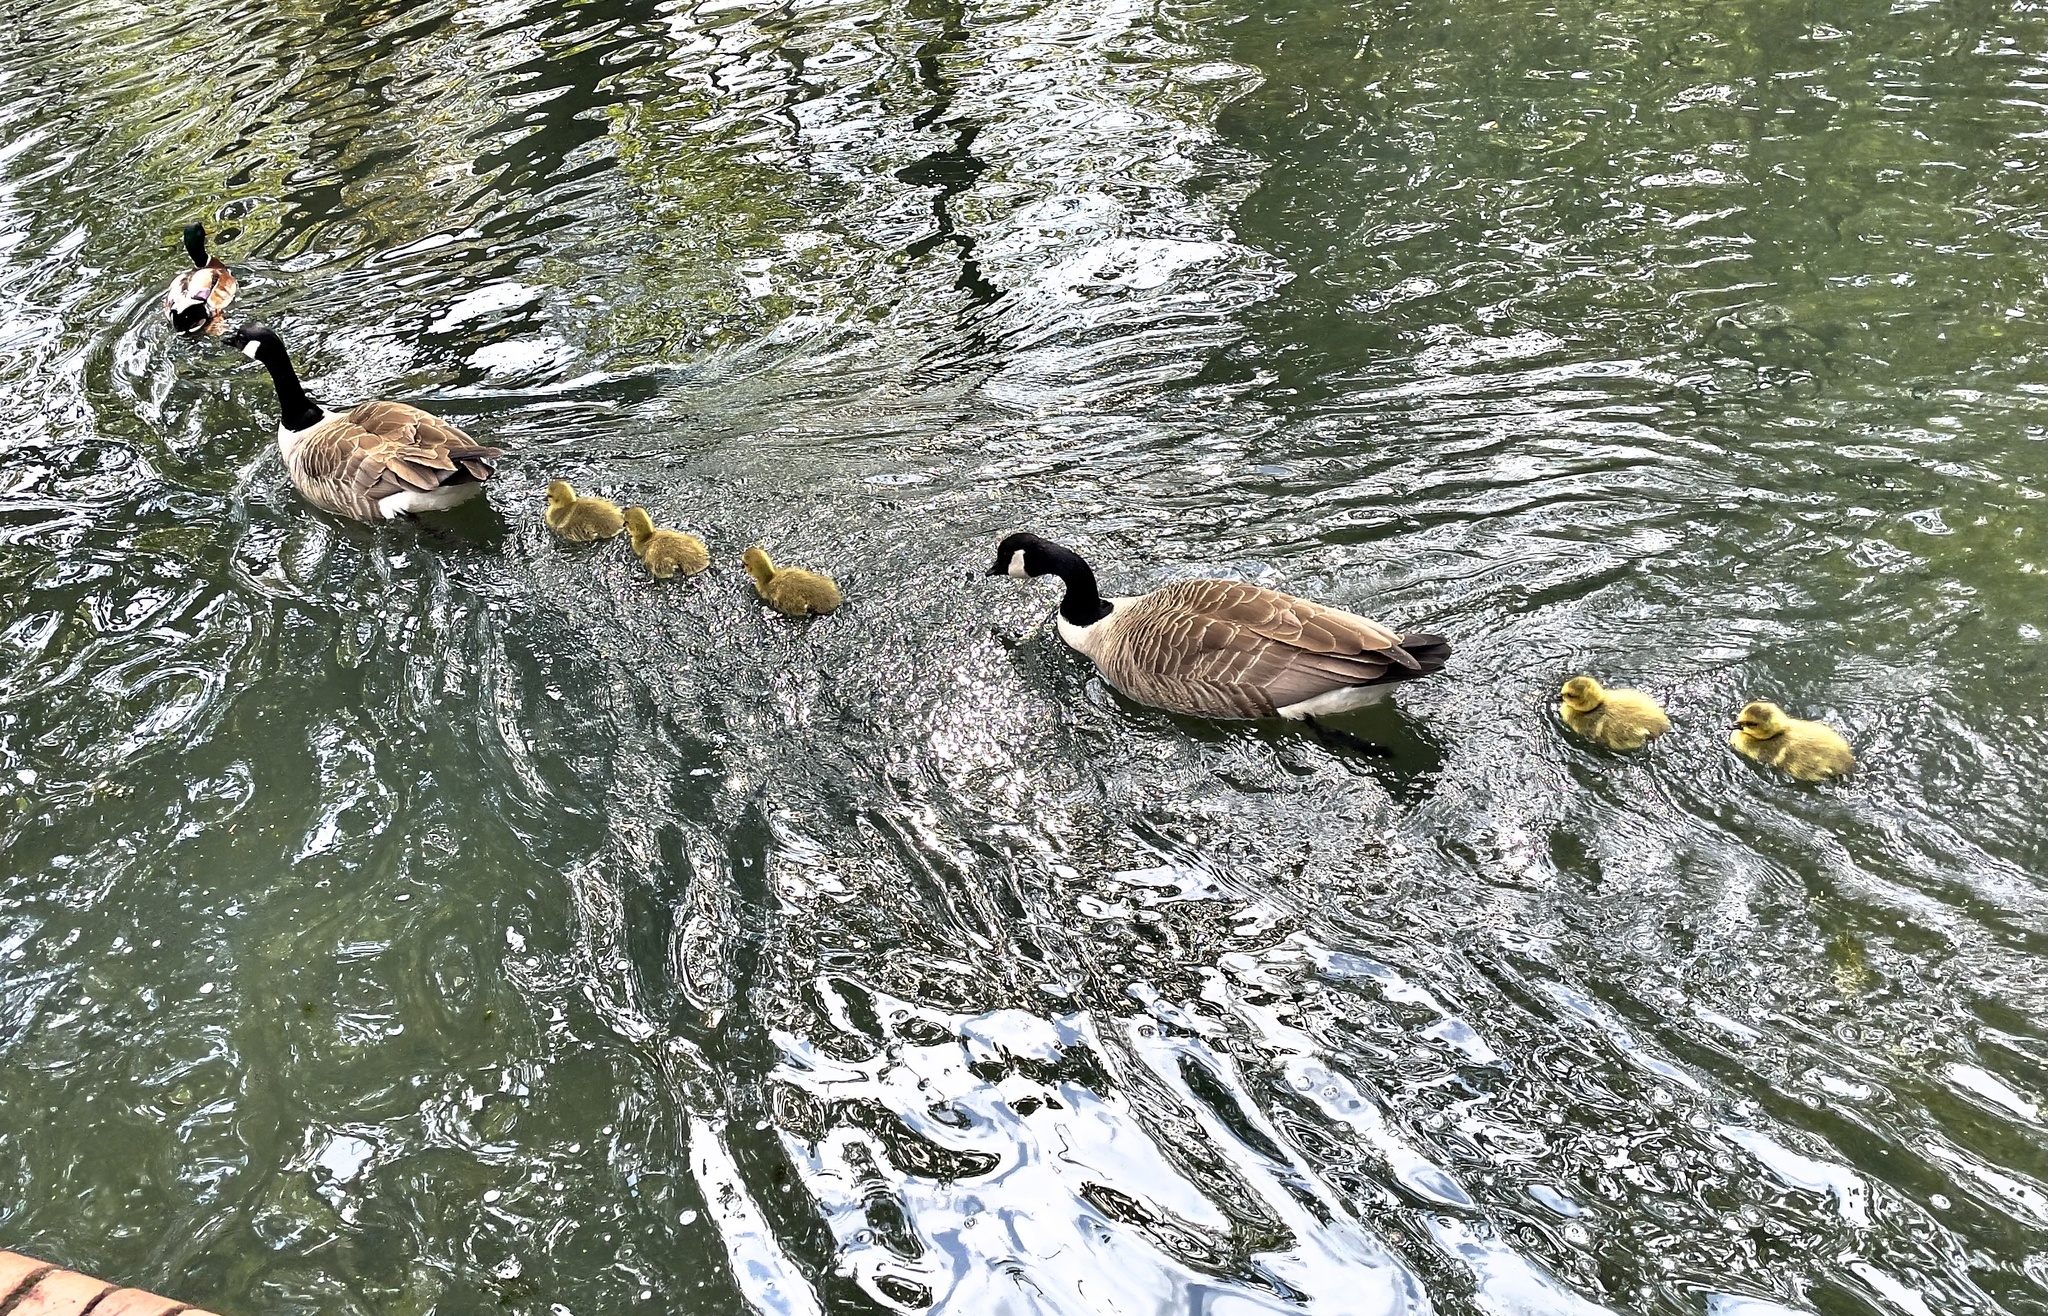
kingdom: Animalia
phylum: Chordata
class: Aves
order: Anseriformes
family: Anatidae
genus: Branta
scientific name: Branta canadensis
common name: Canada goose
